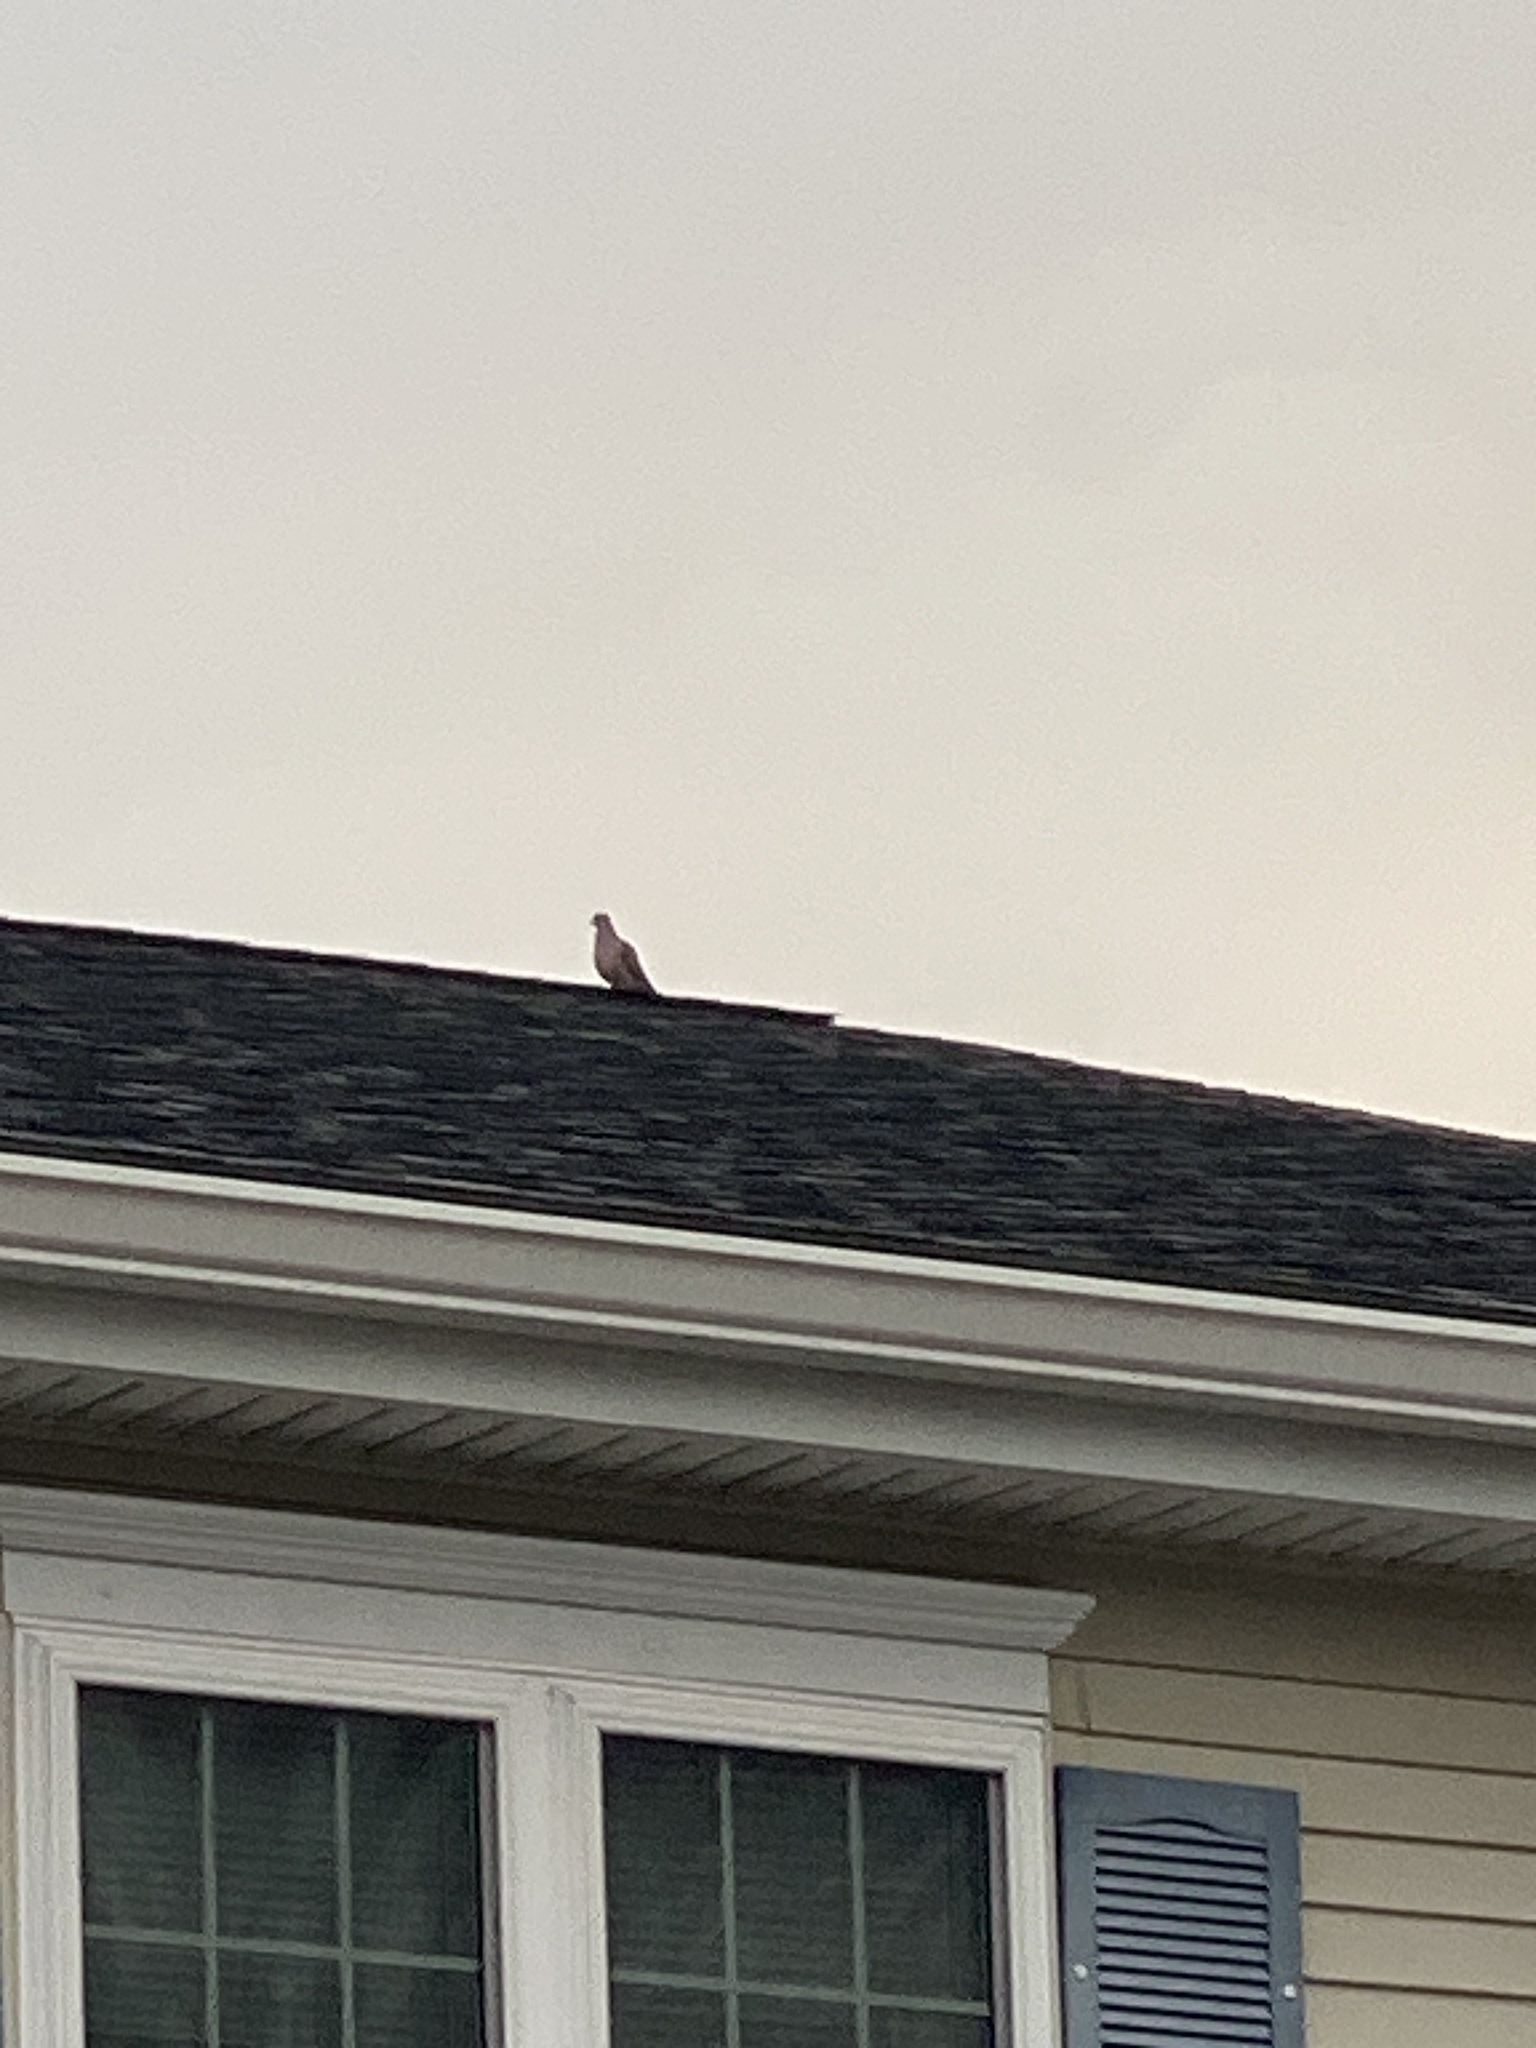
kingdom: Animalia
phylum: Chordata
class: Aves
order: Columbiformes
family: Columbidae
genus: Zenaida
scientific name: Zenaida macroura
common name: Mourning dove
